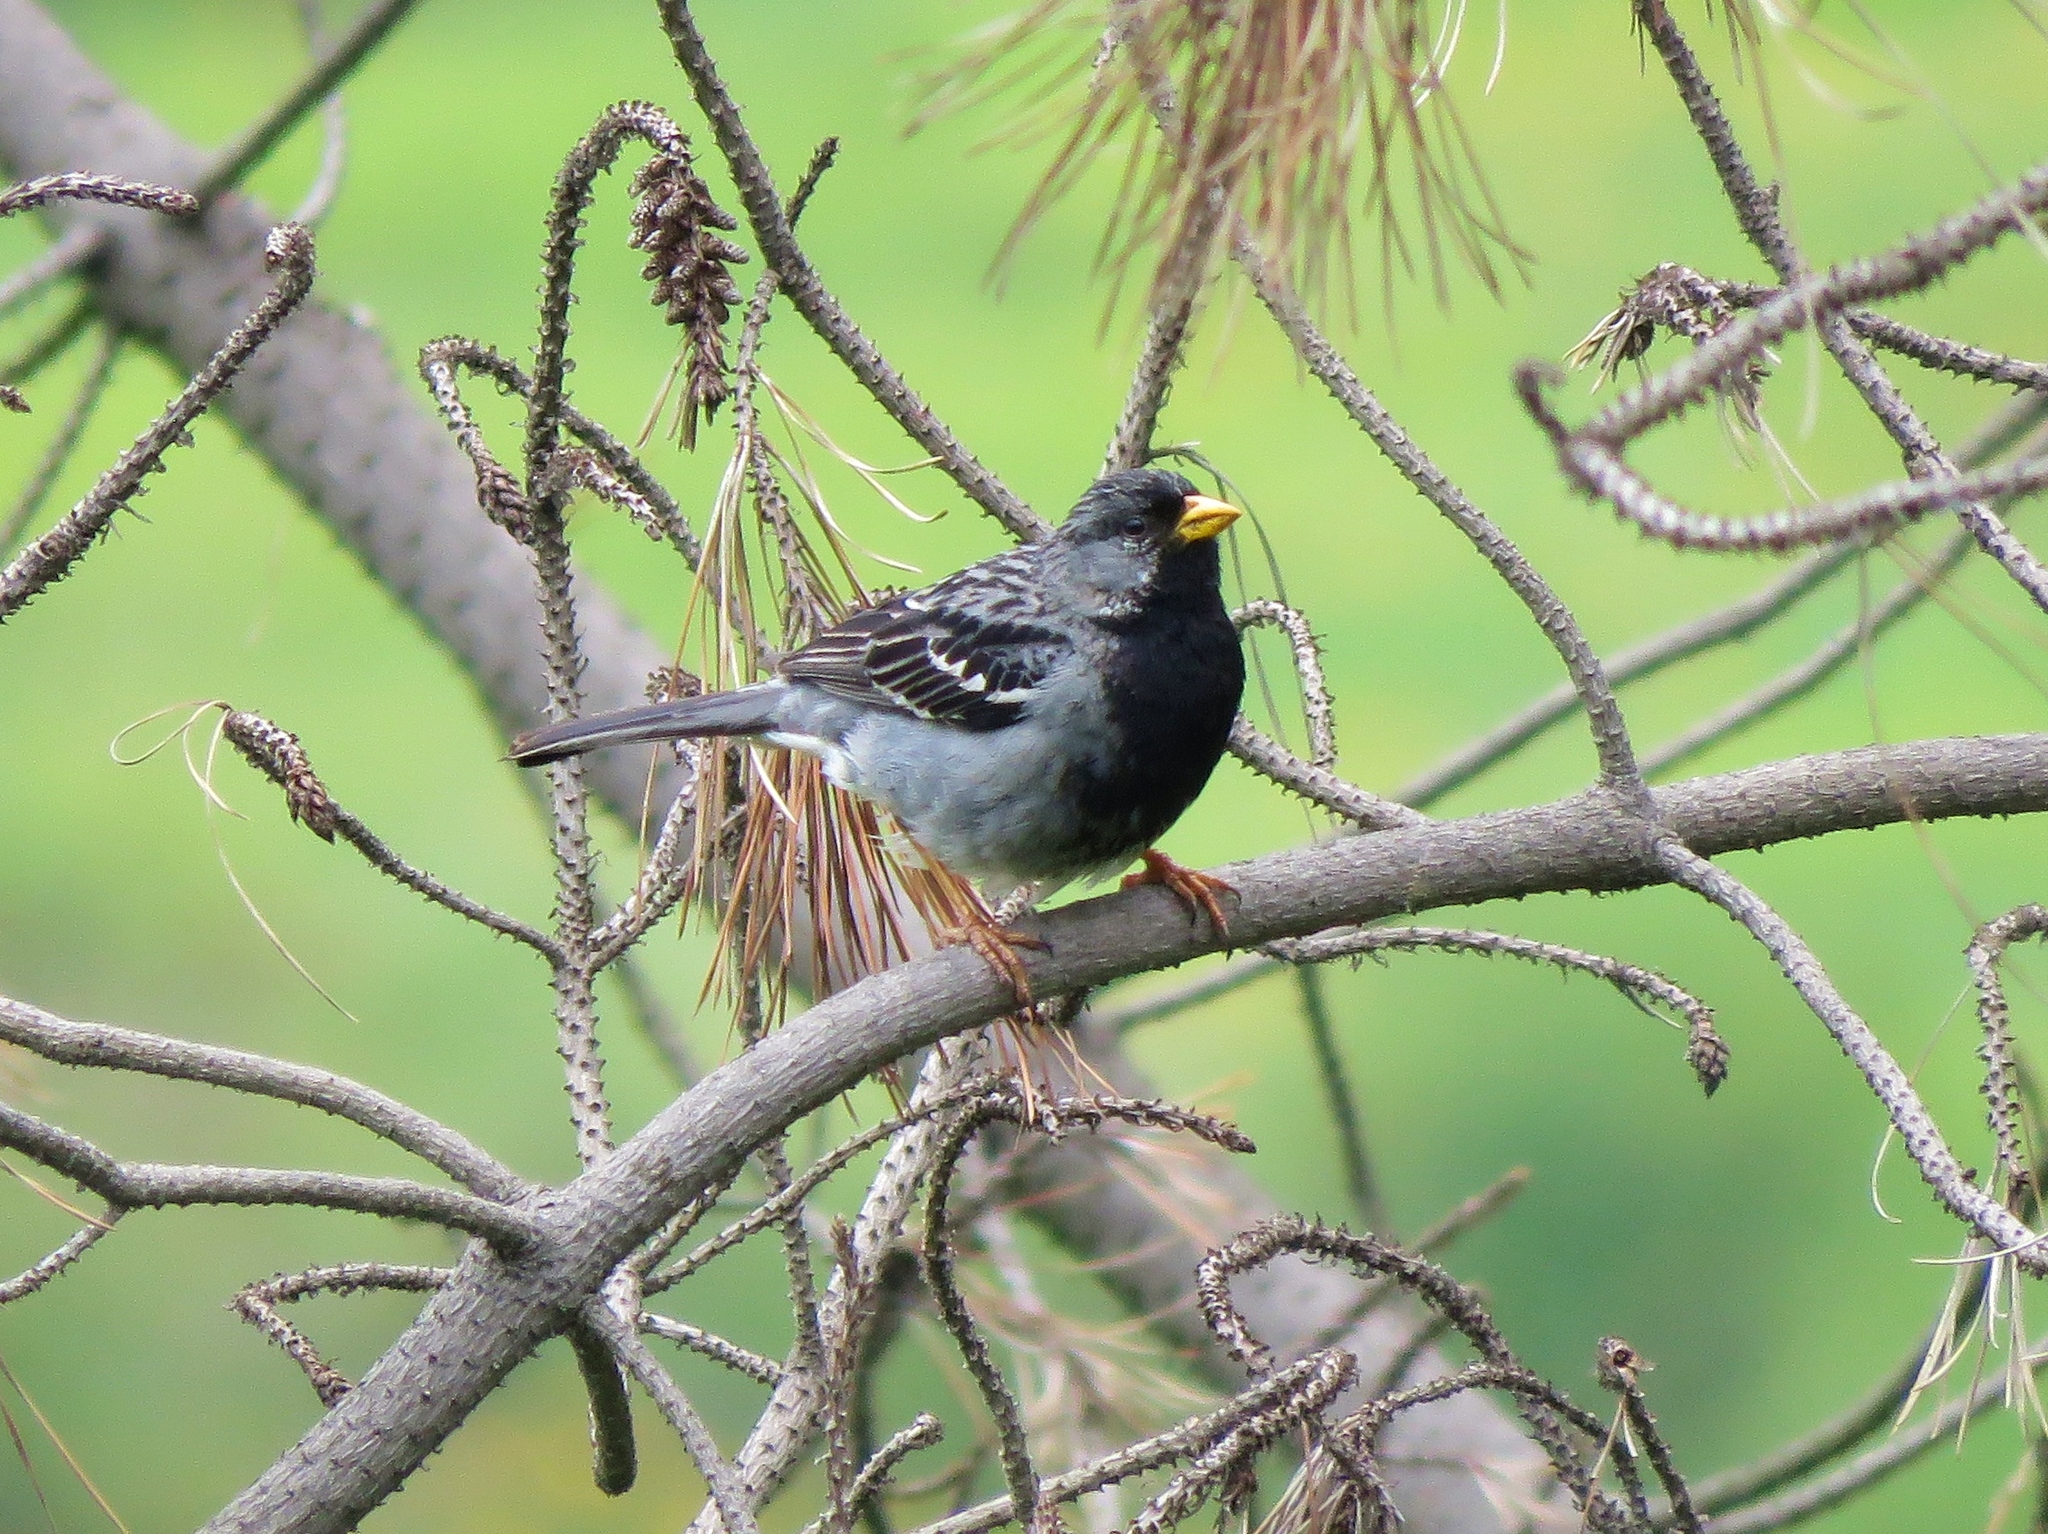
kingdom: Animalia
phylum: Chordata
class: Aves
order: Passeriformes
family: Thraupidae
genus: Rhopospina
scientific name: Rhopospina fruticeti
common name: Mourning sierra finch
